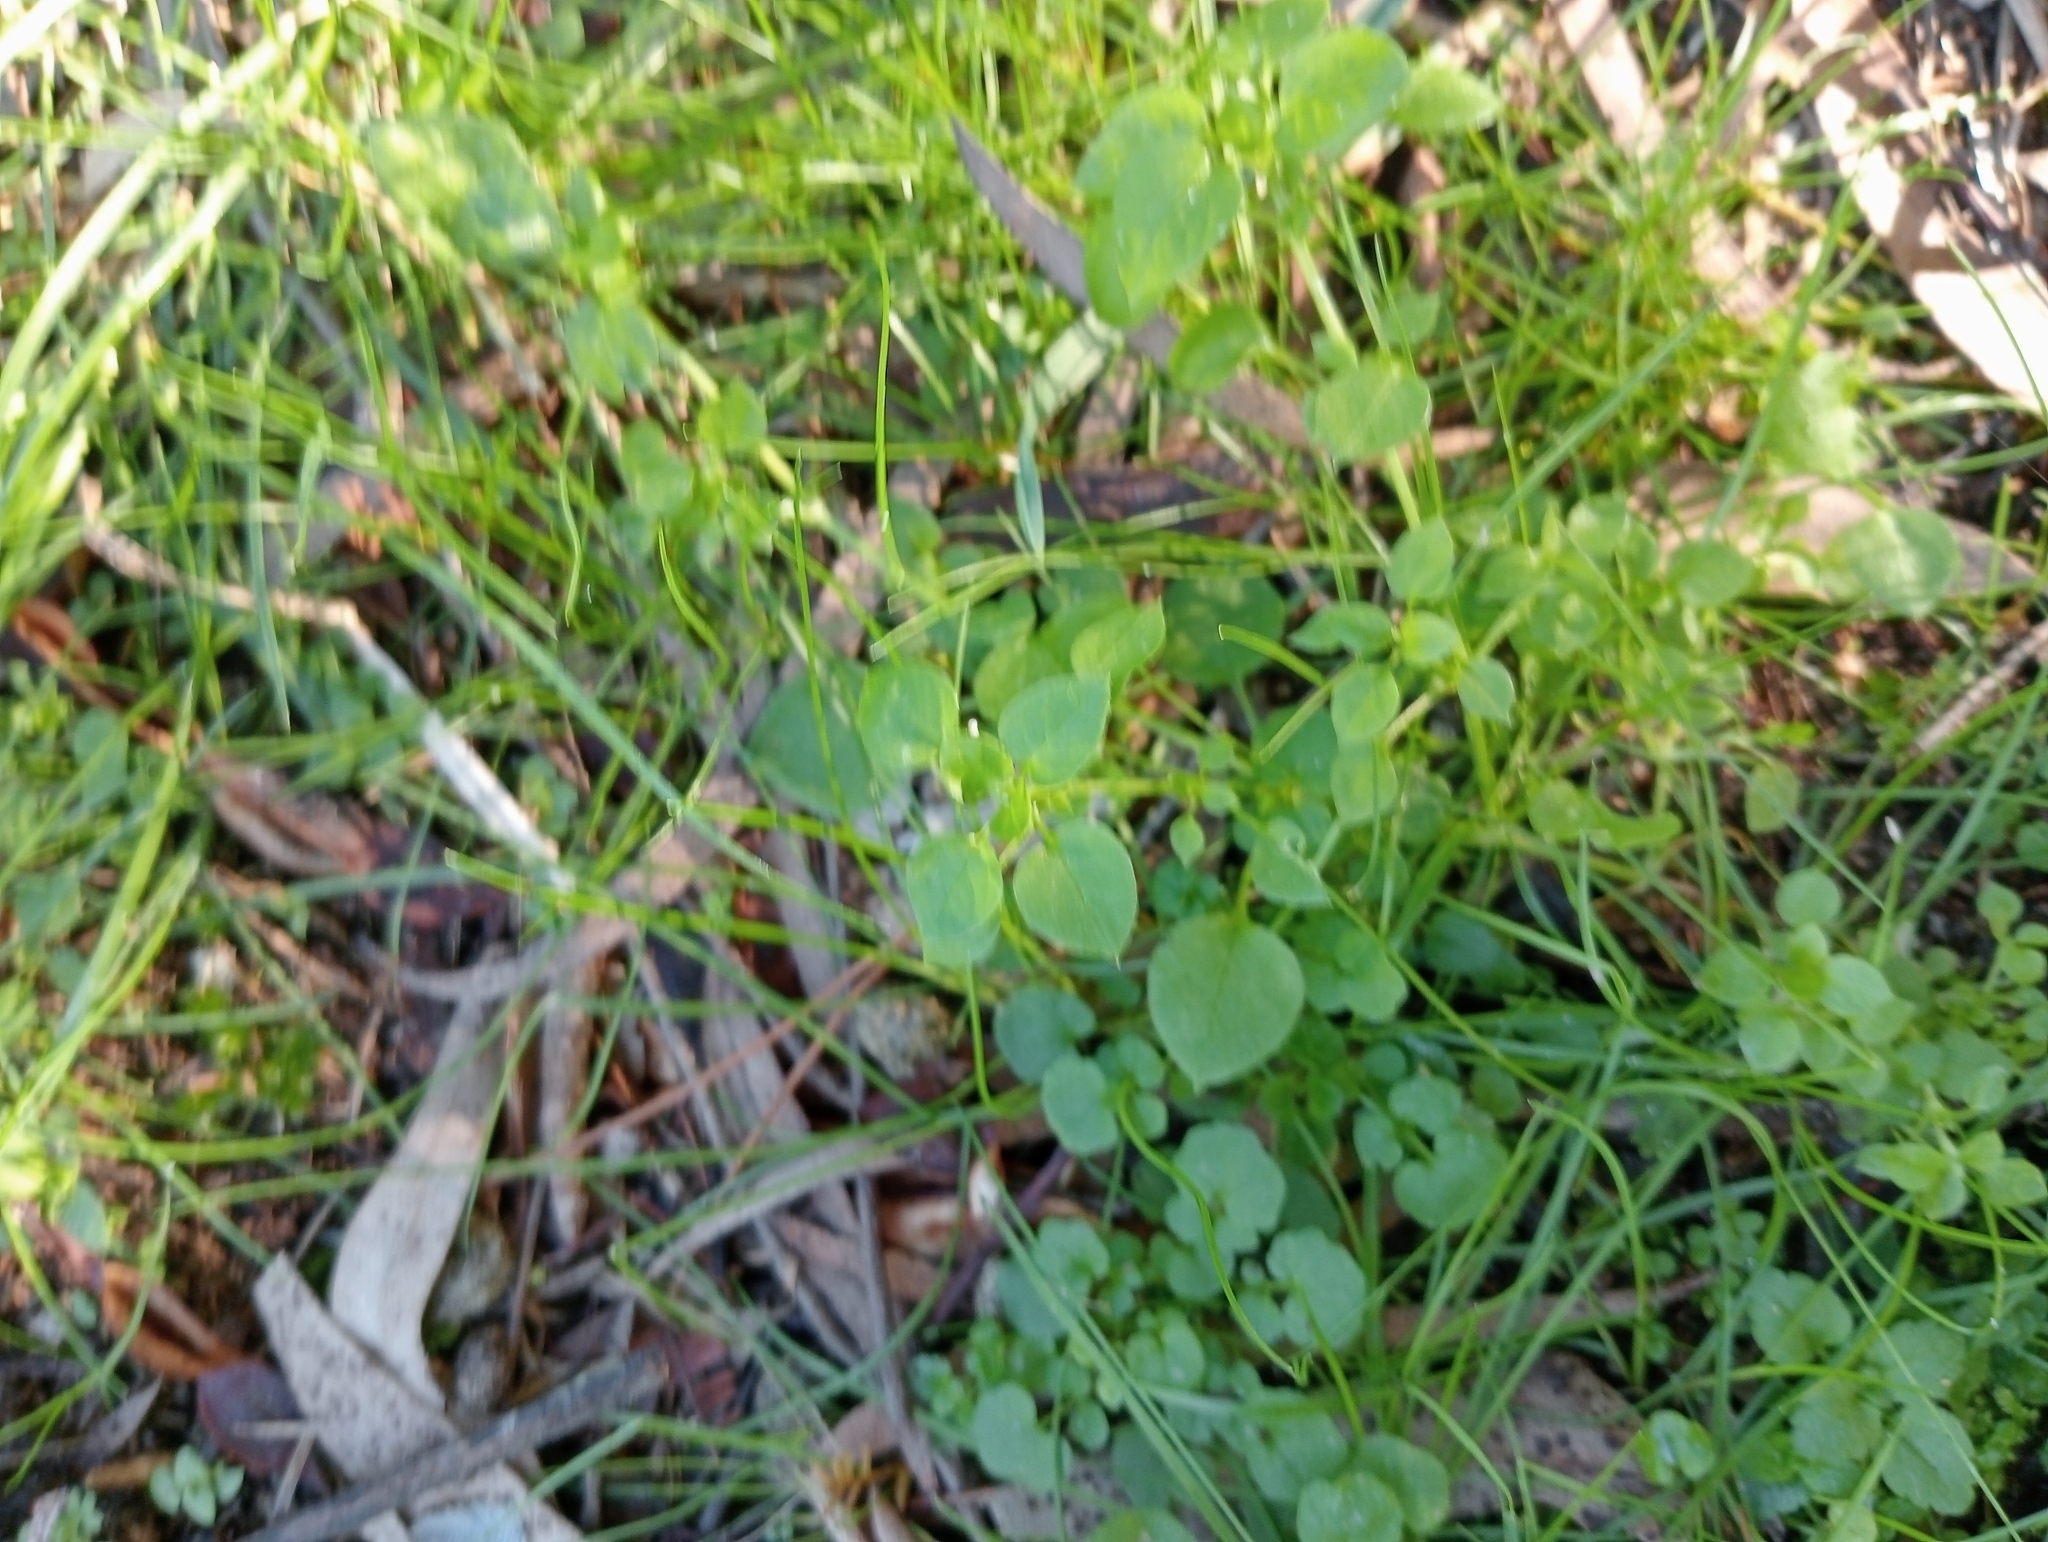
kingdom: Plantae
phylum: Tracheophyta
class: Magnoliopsida
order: Caryophyllales
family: Caryophyllaceae
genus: Stellaria
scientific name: Stellaria media
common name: Common chickweed
